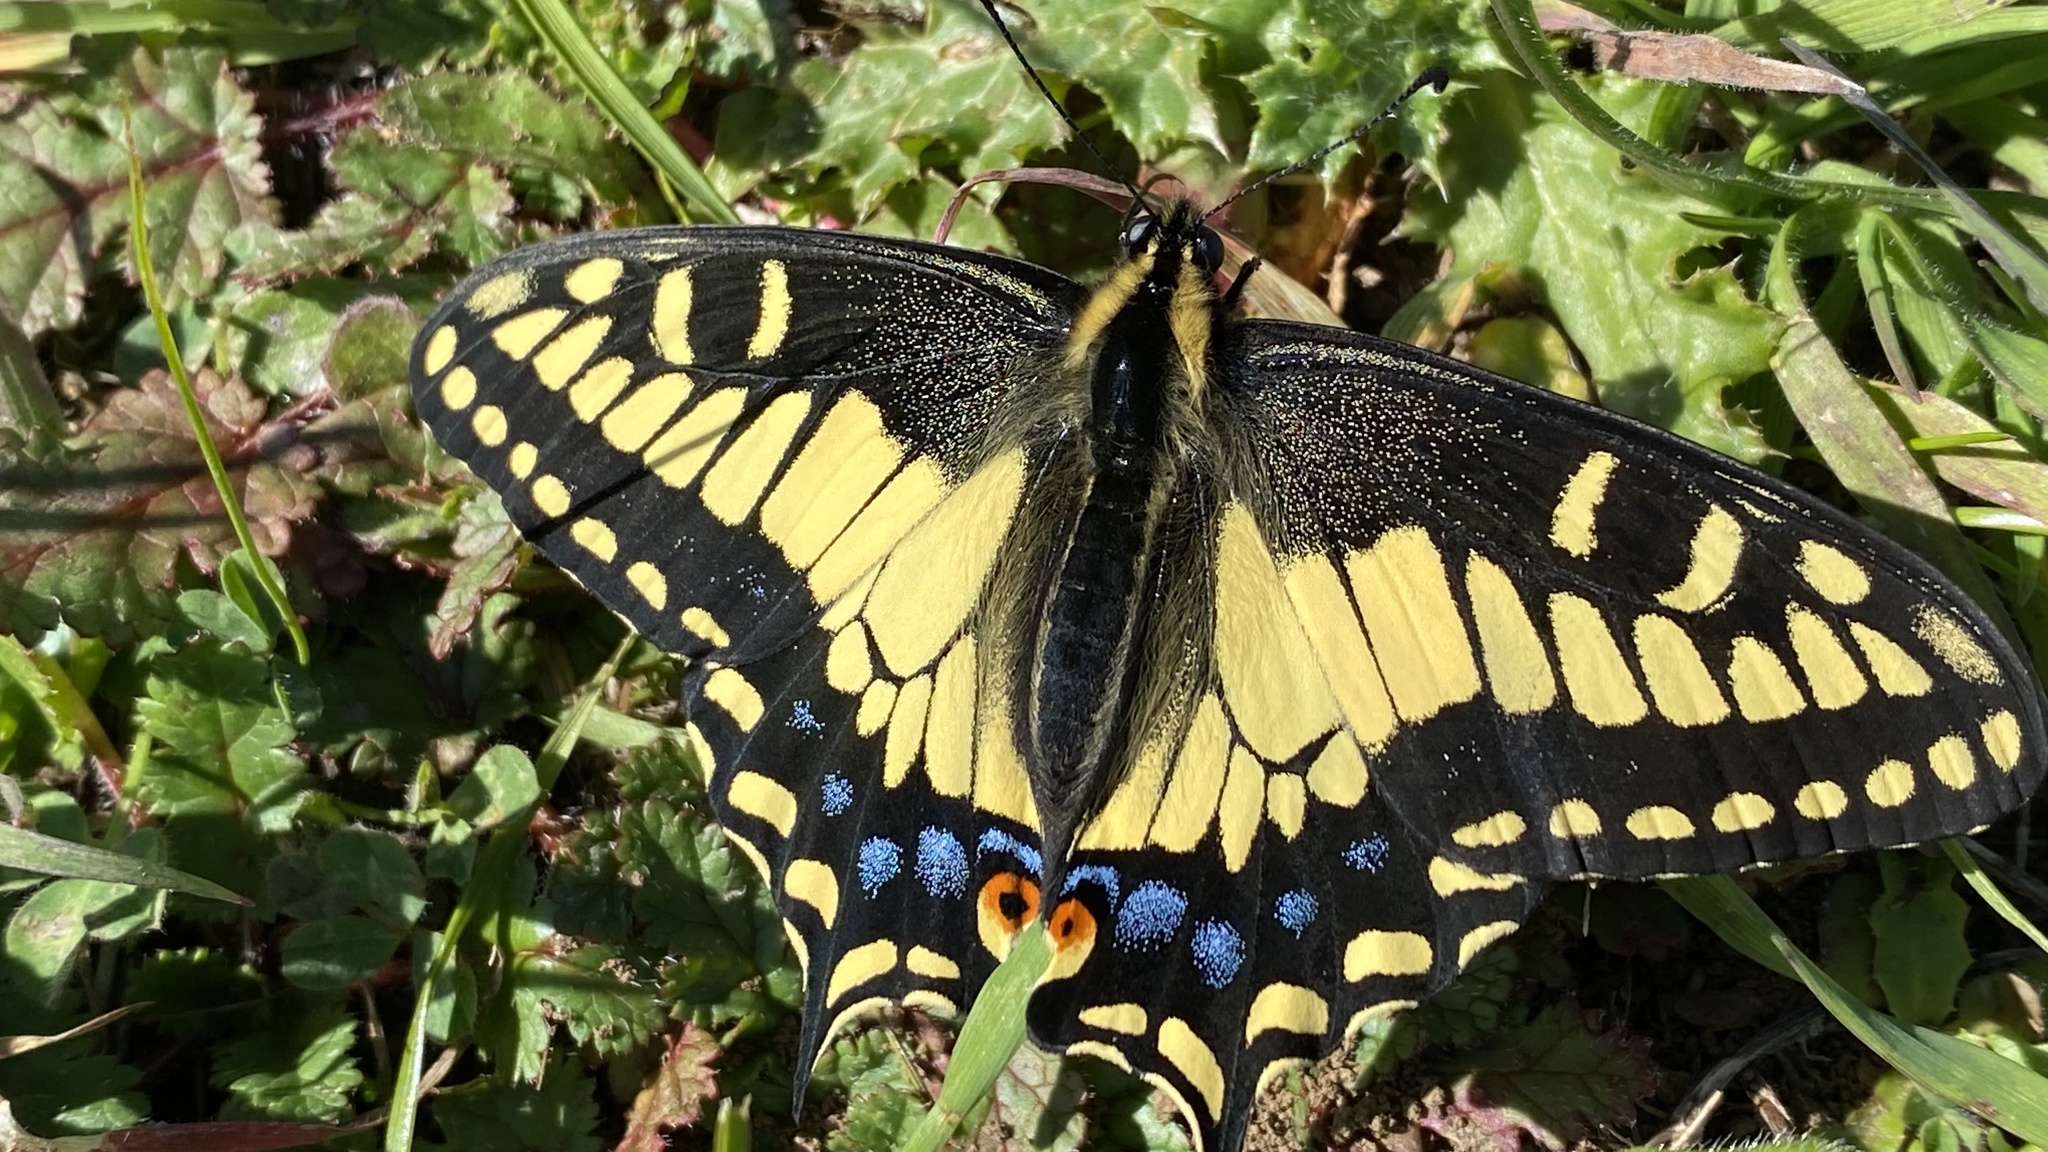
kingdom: Animalia
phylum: Arthropoda
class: Insecta
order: Lepidoptera
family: Papilionidae
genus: Papilio
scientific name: Papilio zelicaon
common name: Anise swallowtail
